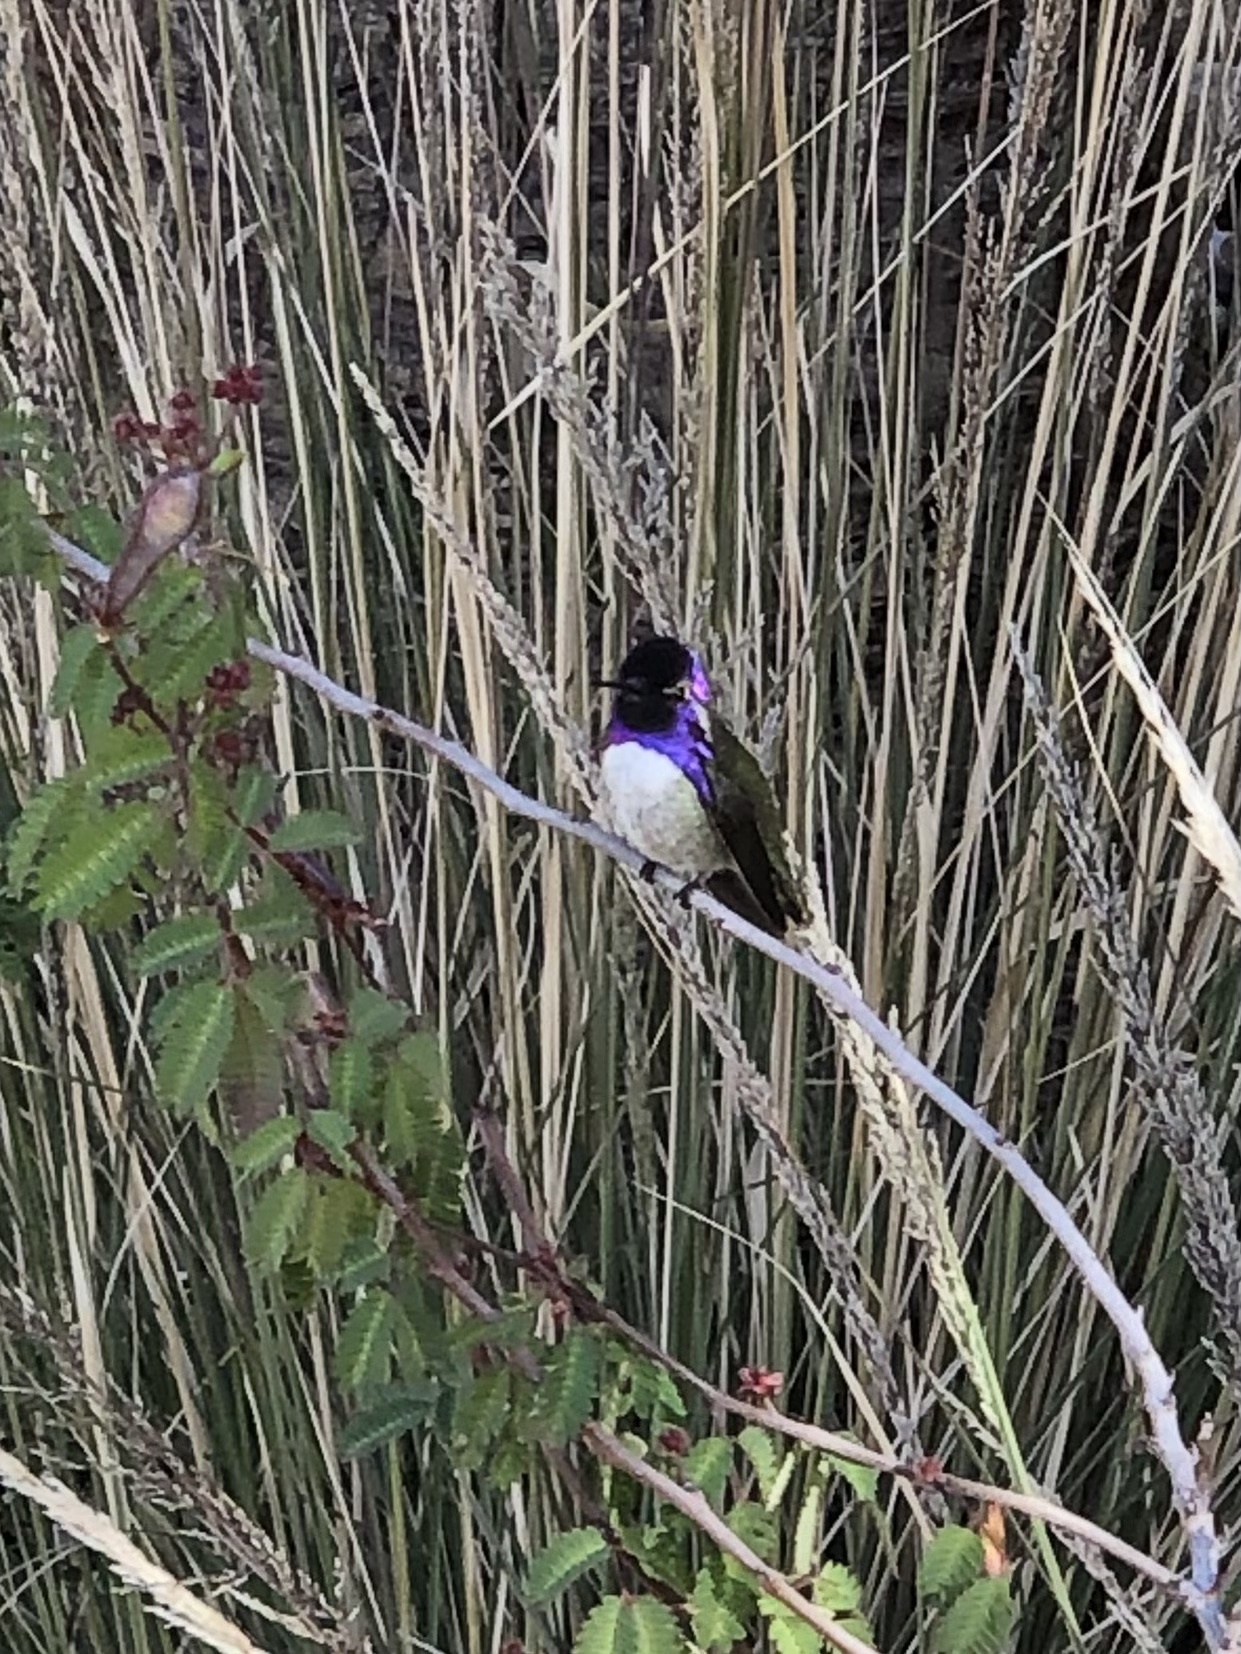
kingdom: Animalia
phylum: Chordata
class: Aves
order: Apodiformes
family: Trochilidae
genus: Calypte
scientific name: Calypte costae
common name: Costa's hummingbird
